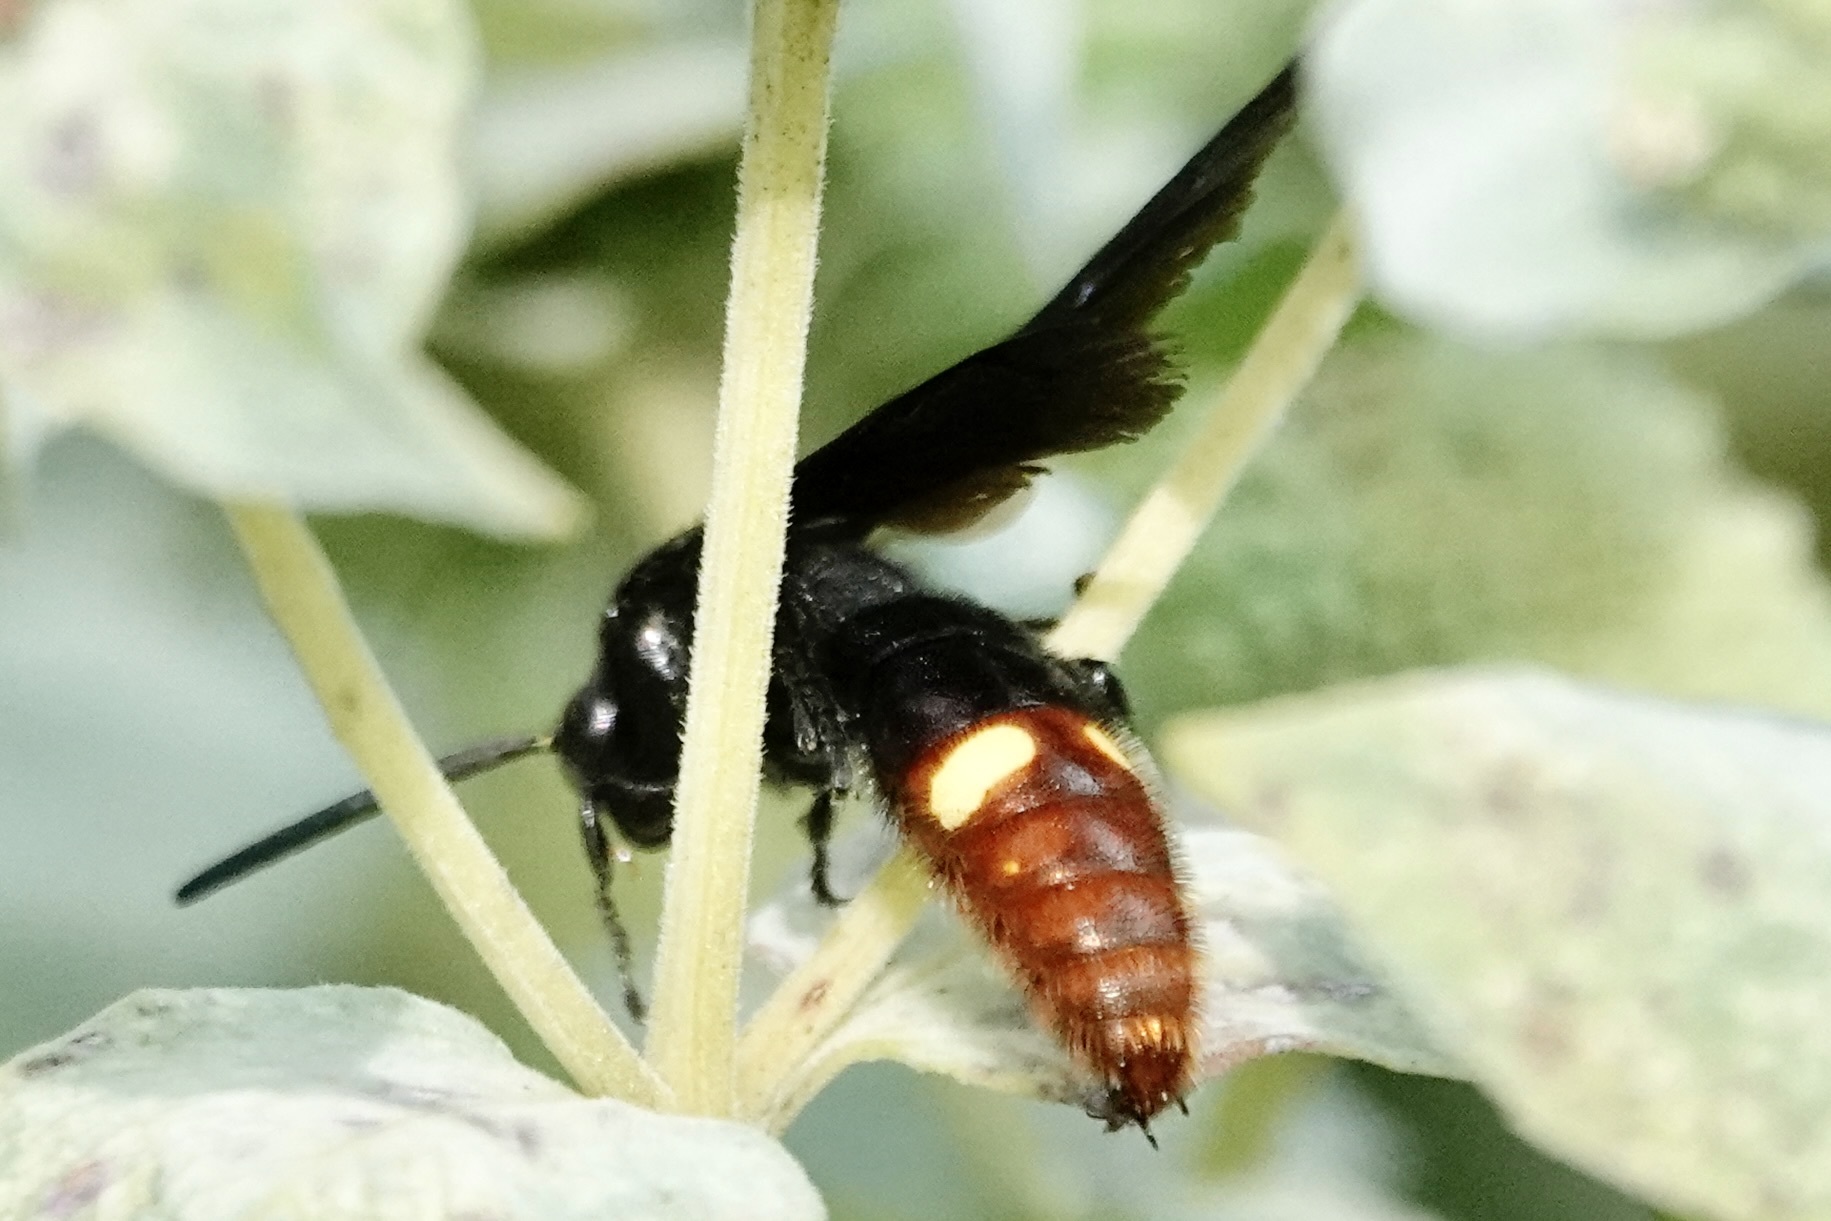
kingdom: Animalia
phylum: Arthropoda
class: Insecta
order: Hymenoptera
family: Scoliidae
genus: Scolia
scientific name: Scolia dubia
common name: Blue-winged scoliid wasp
